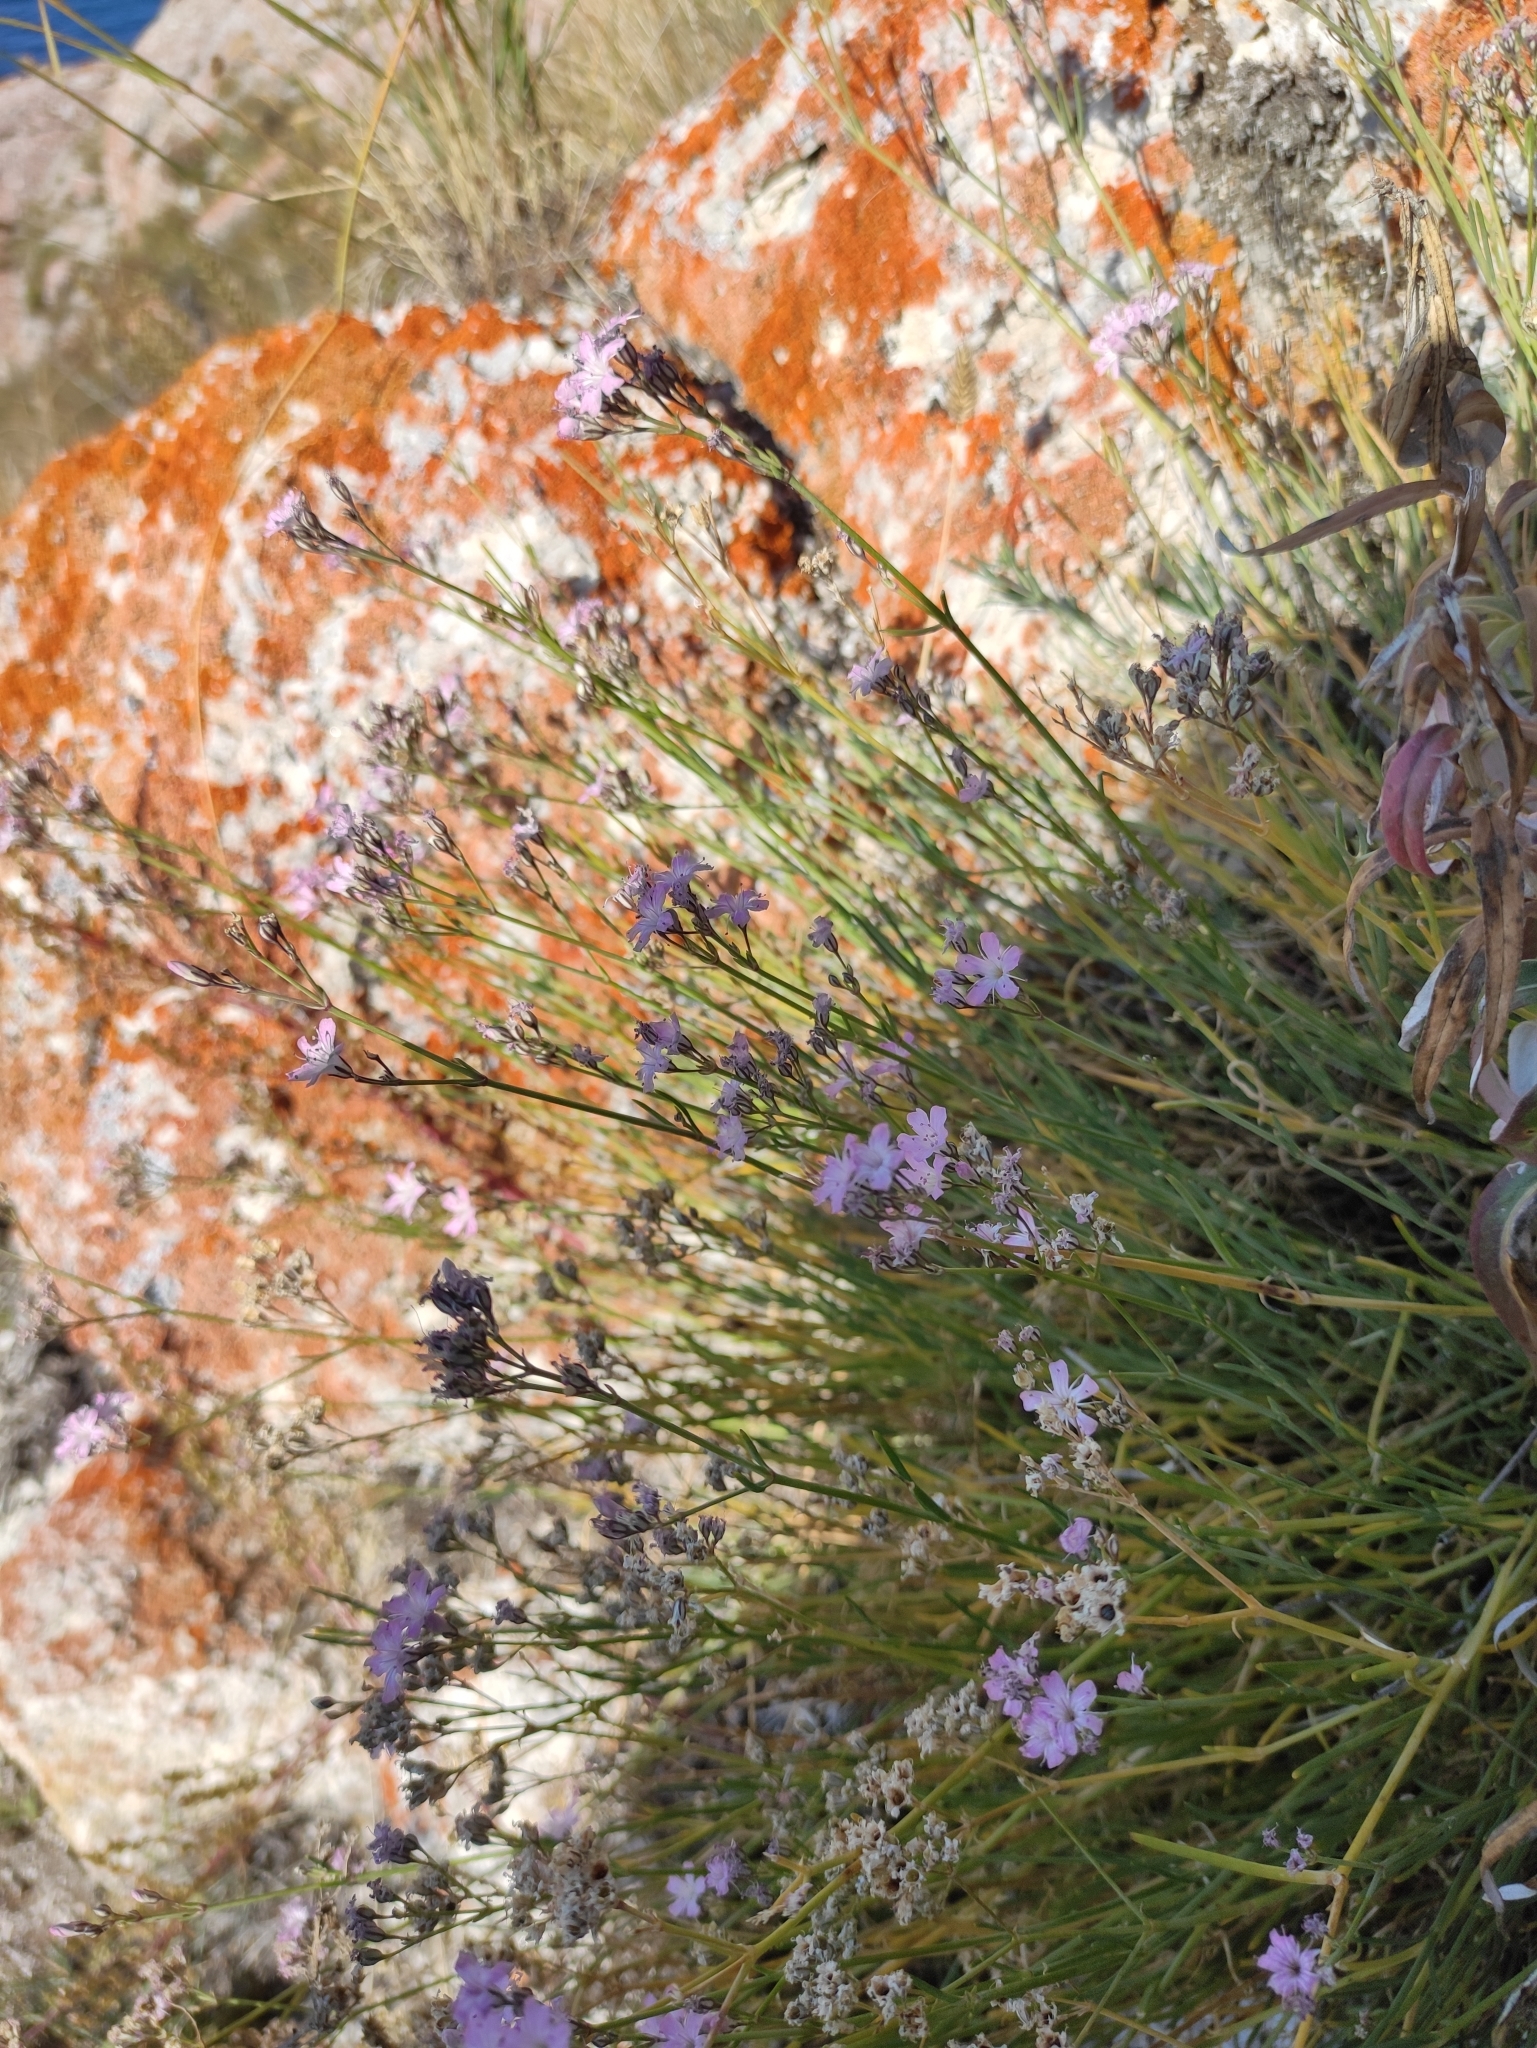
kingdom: Plantae
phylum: Tracheophyta
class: Magnoliopsida
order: Caryophyllales
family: Caryophyllaceae
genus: Gypsophila
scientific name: Gypsophila patrinii
